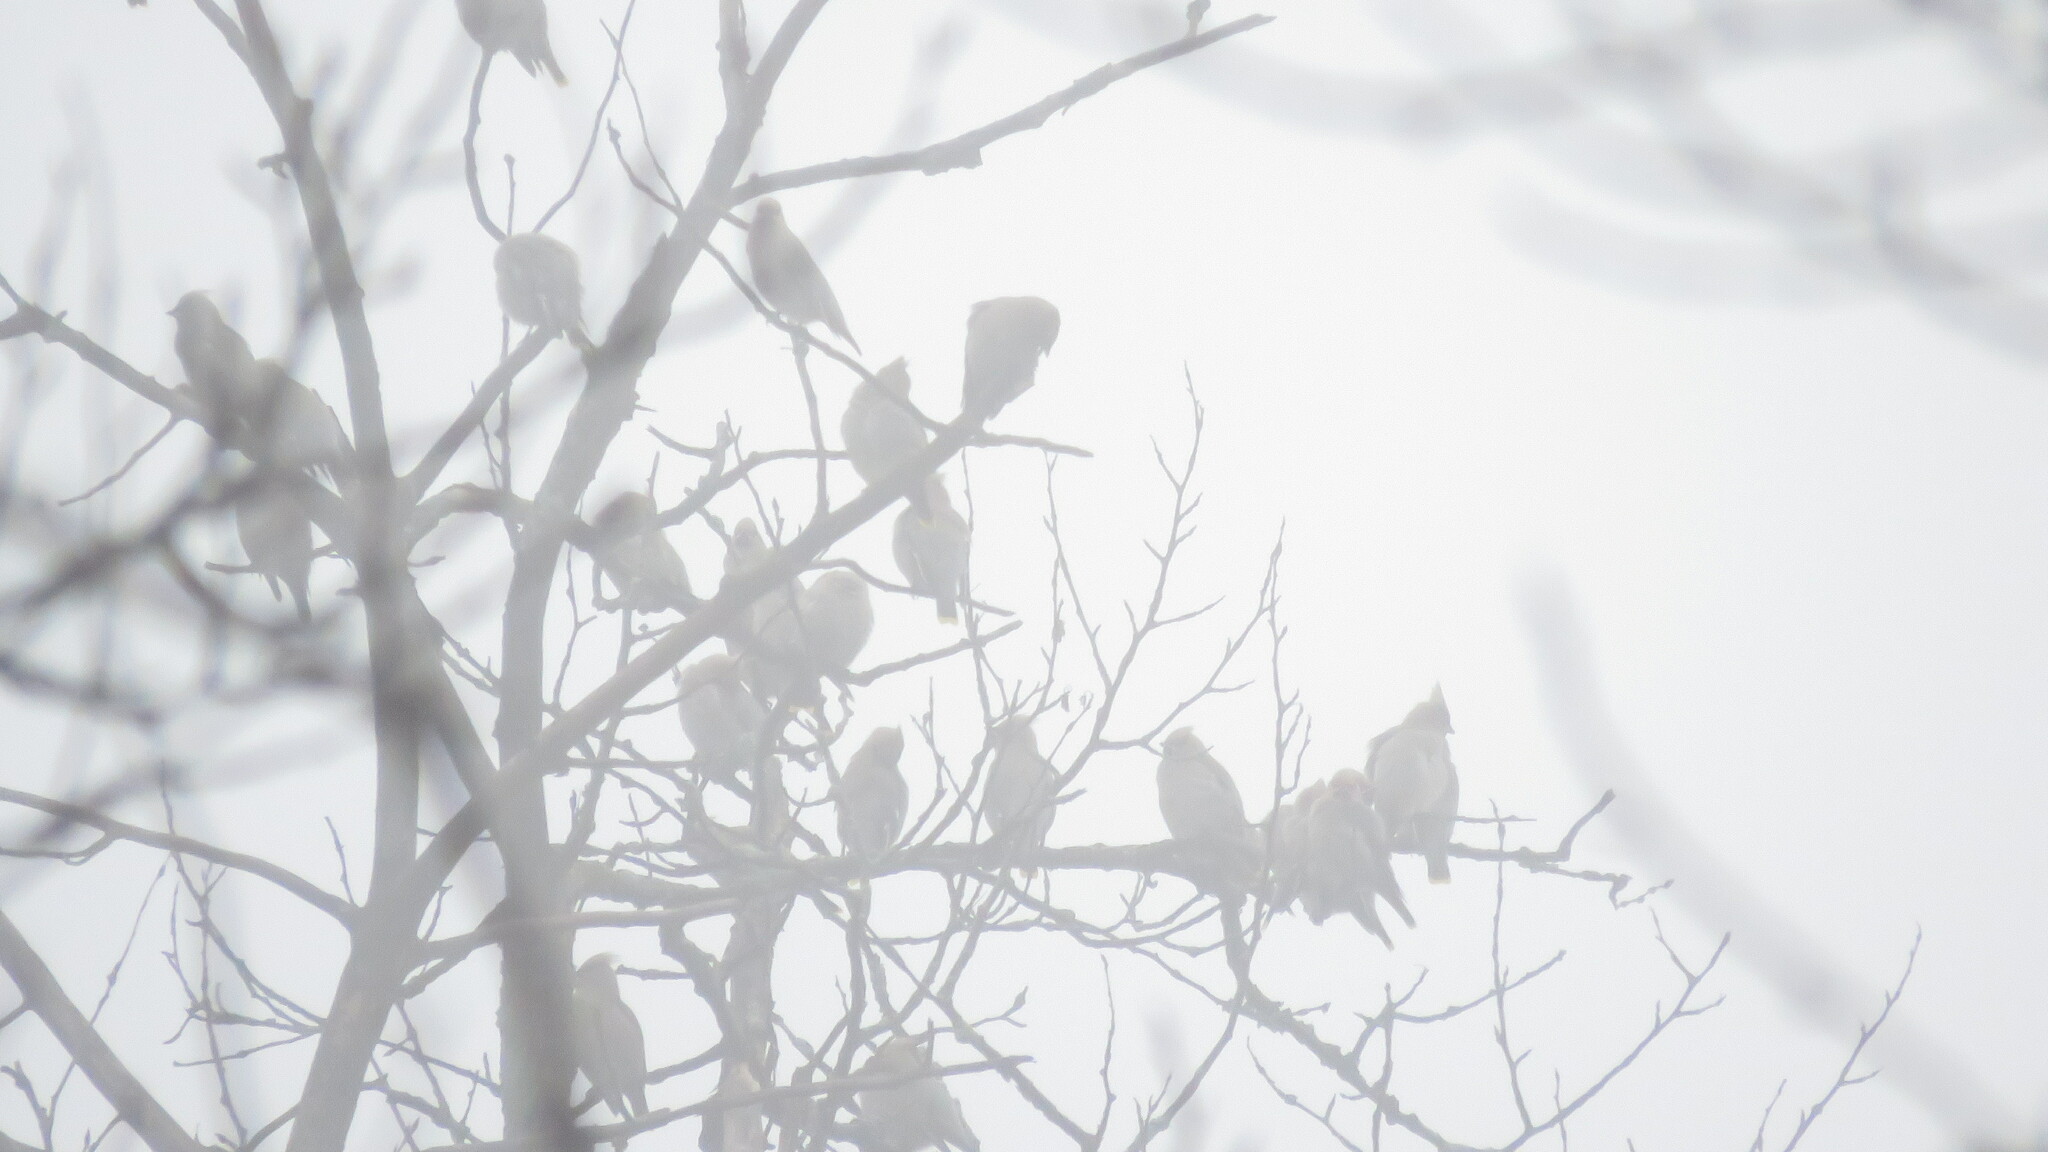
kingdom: Animalia
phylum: Chordata
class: Aves
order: Passeriformes
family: Bombycillidae
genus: Bombycilla
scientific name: Bombycilla garrulus
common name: Bohemian waxwing
